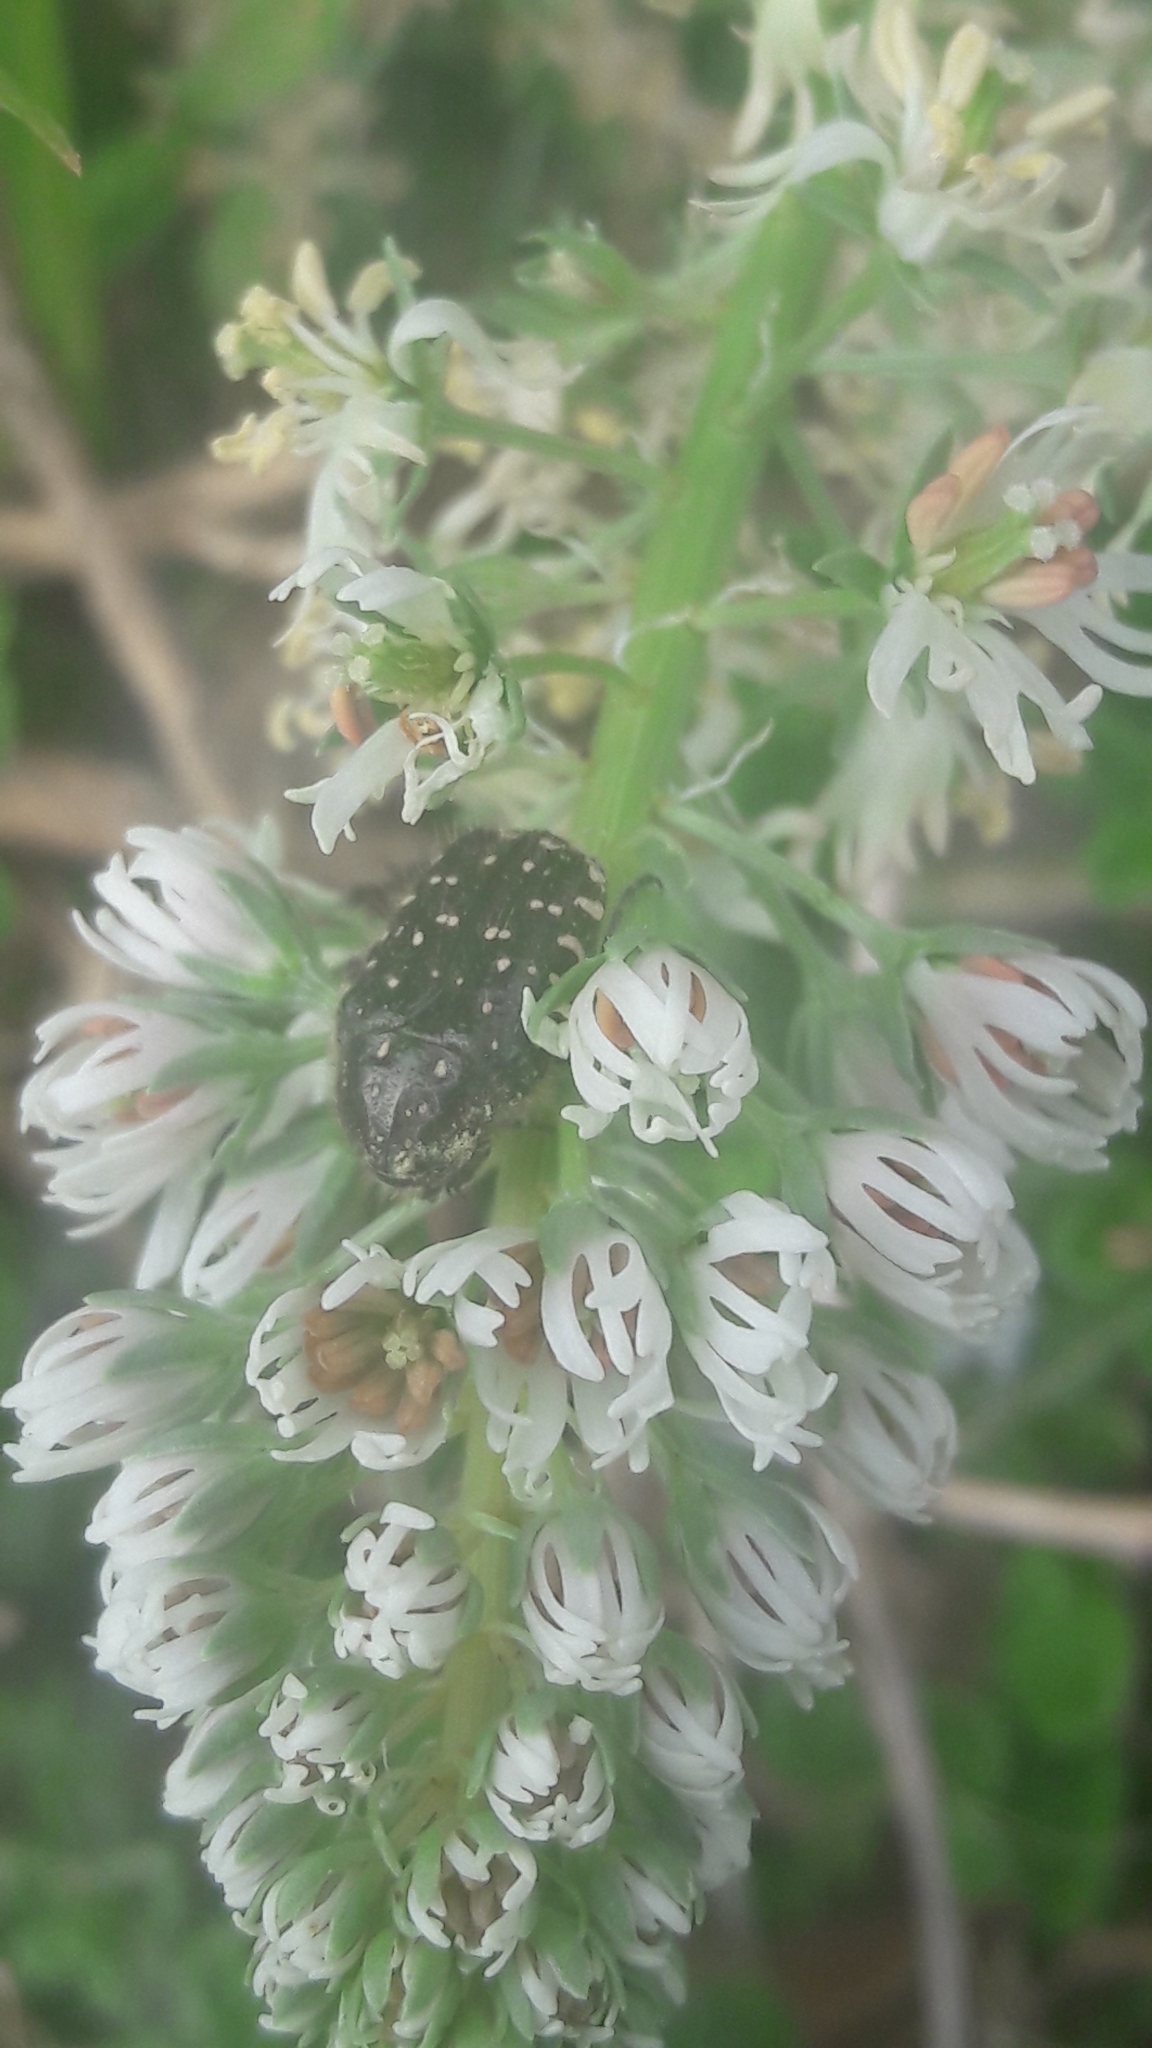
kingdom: Animalia
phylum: Arthropoda
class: Insecta
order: Coleoptera
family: Scarabaeidae
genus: Oxythyrea
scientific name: Oxythyrea funesta
